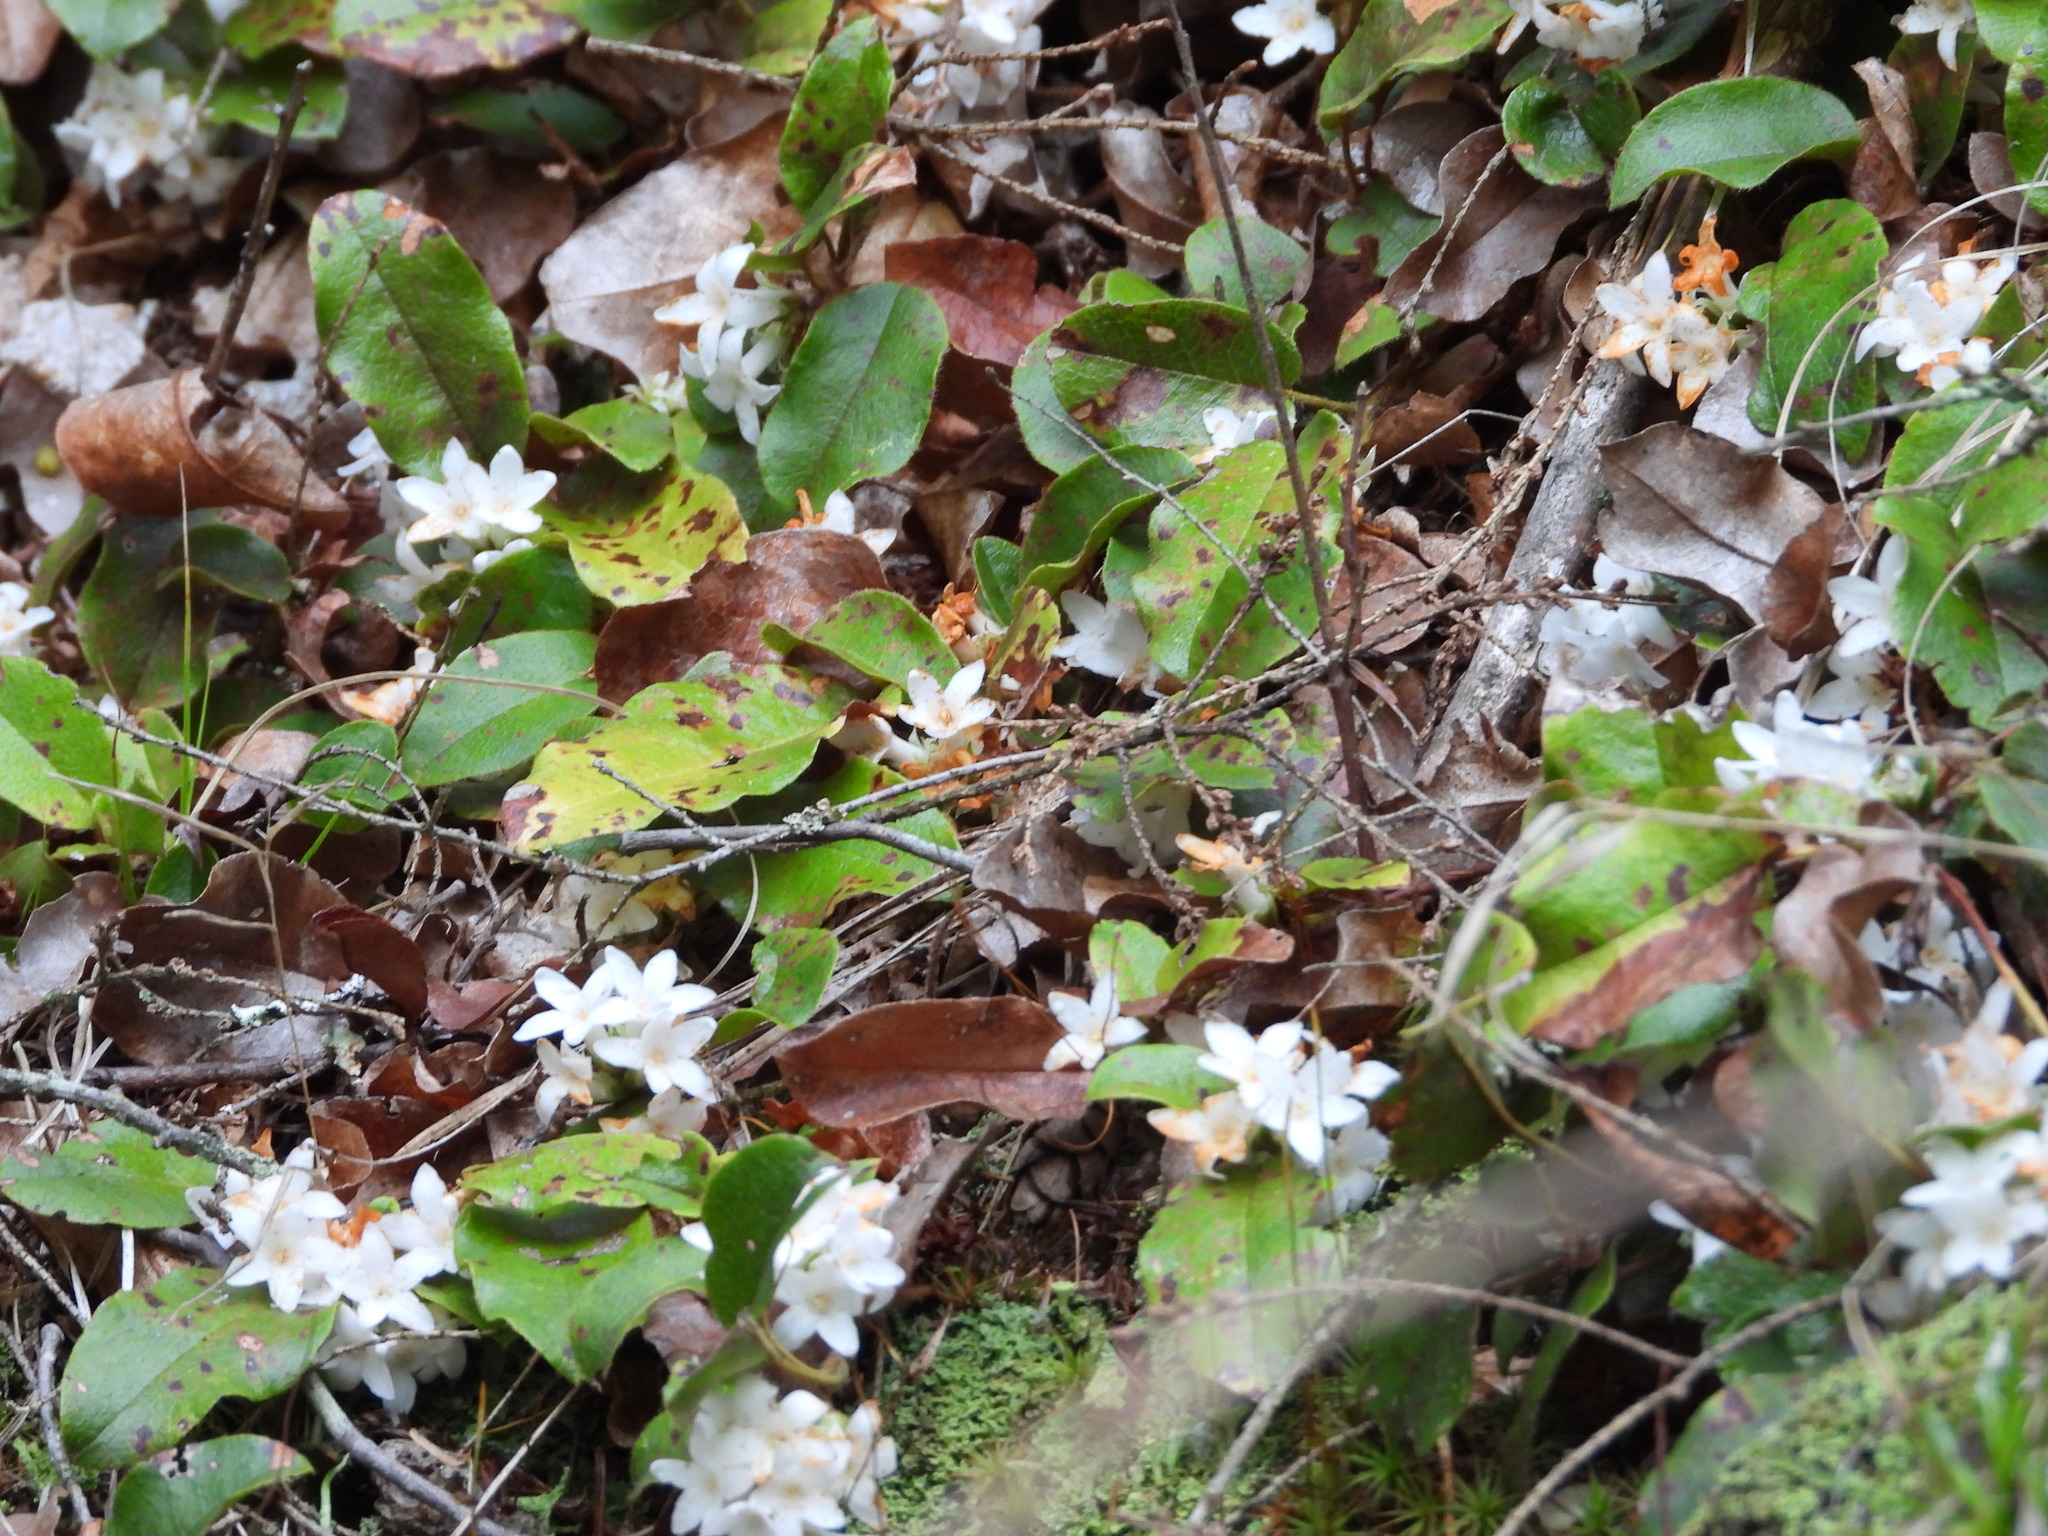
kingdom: Plantae
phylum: Tracheophyta
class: Magnoliopsida
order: Ericales
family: Ericaceae
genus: Epigaea
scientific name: Epigaea repens
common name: Gravelroot
